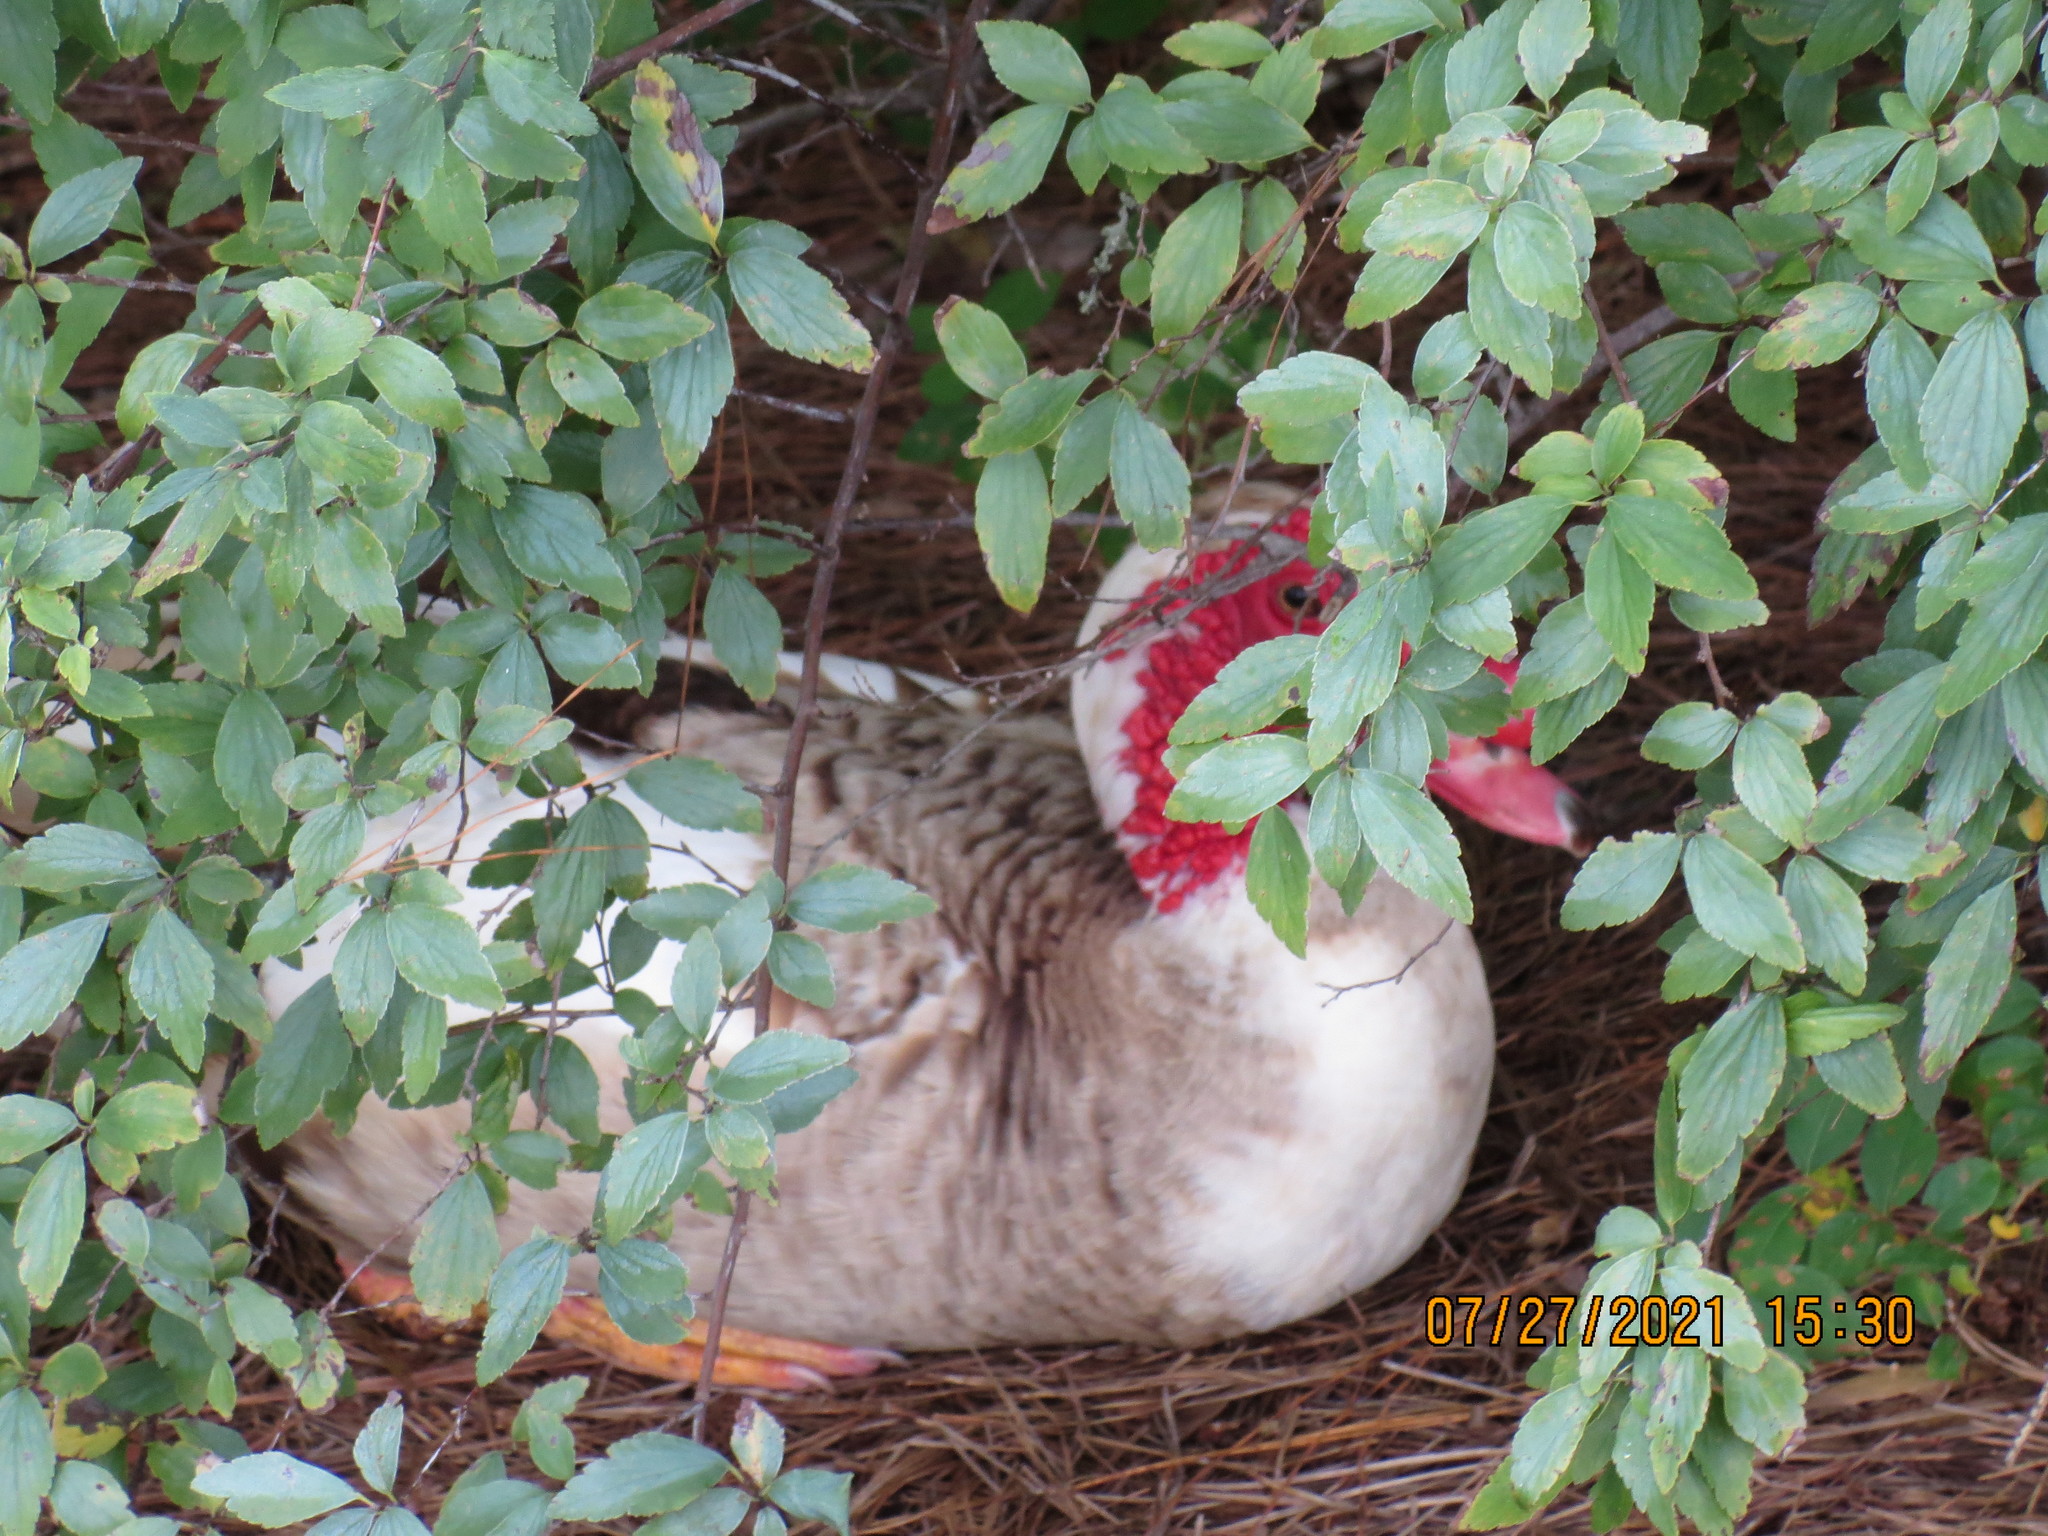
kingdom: Animalia
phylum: Chordata
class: Aves
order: Anseriformes
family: Anatidae
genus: Cairina
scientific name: Cairina moschata
